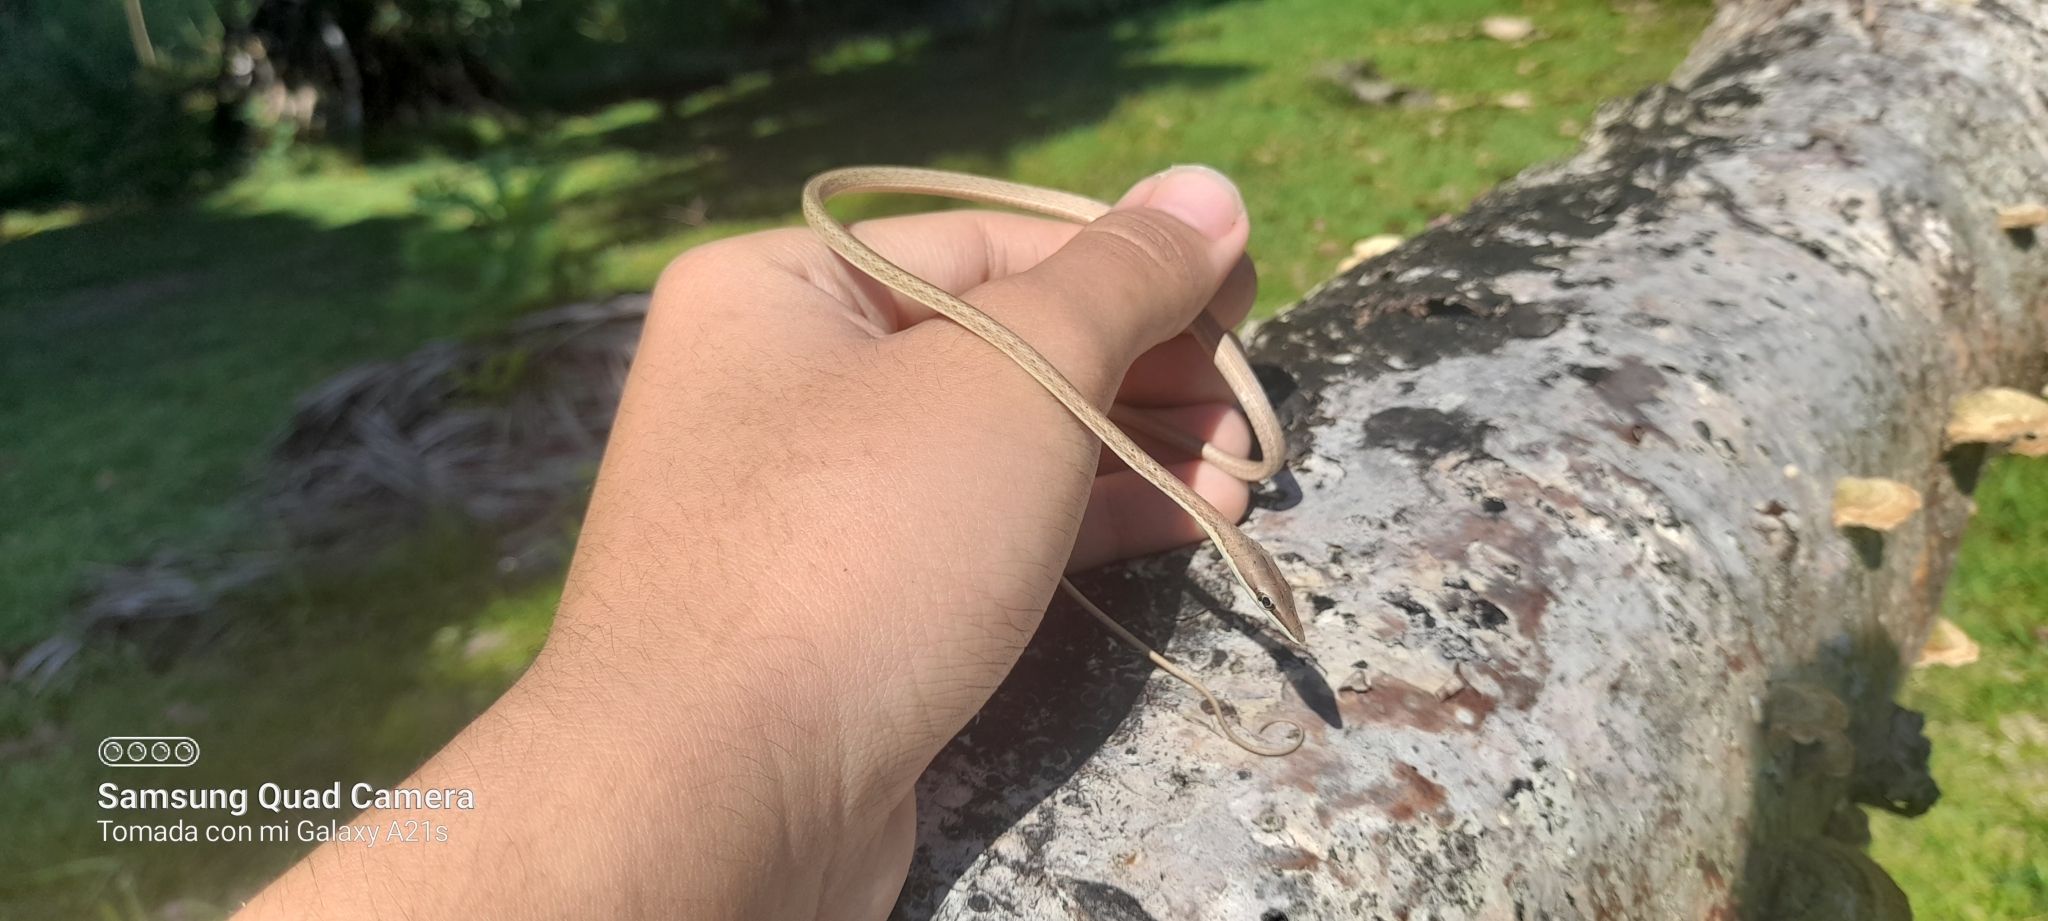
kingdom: Animalia
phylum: Chordata
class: Squamata
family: Colubridae
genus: Oxybelis
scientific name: Oxybelis vittatus
